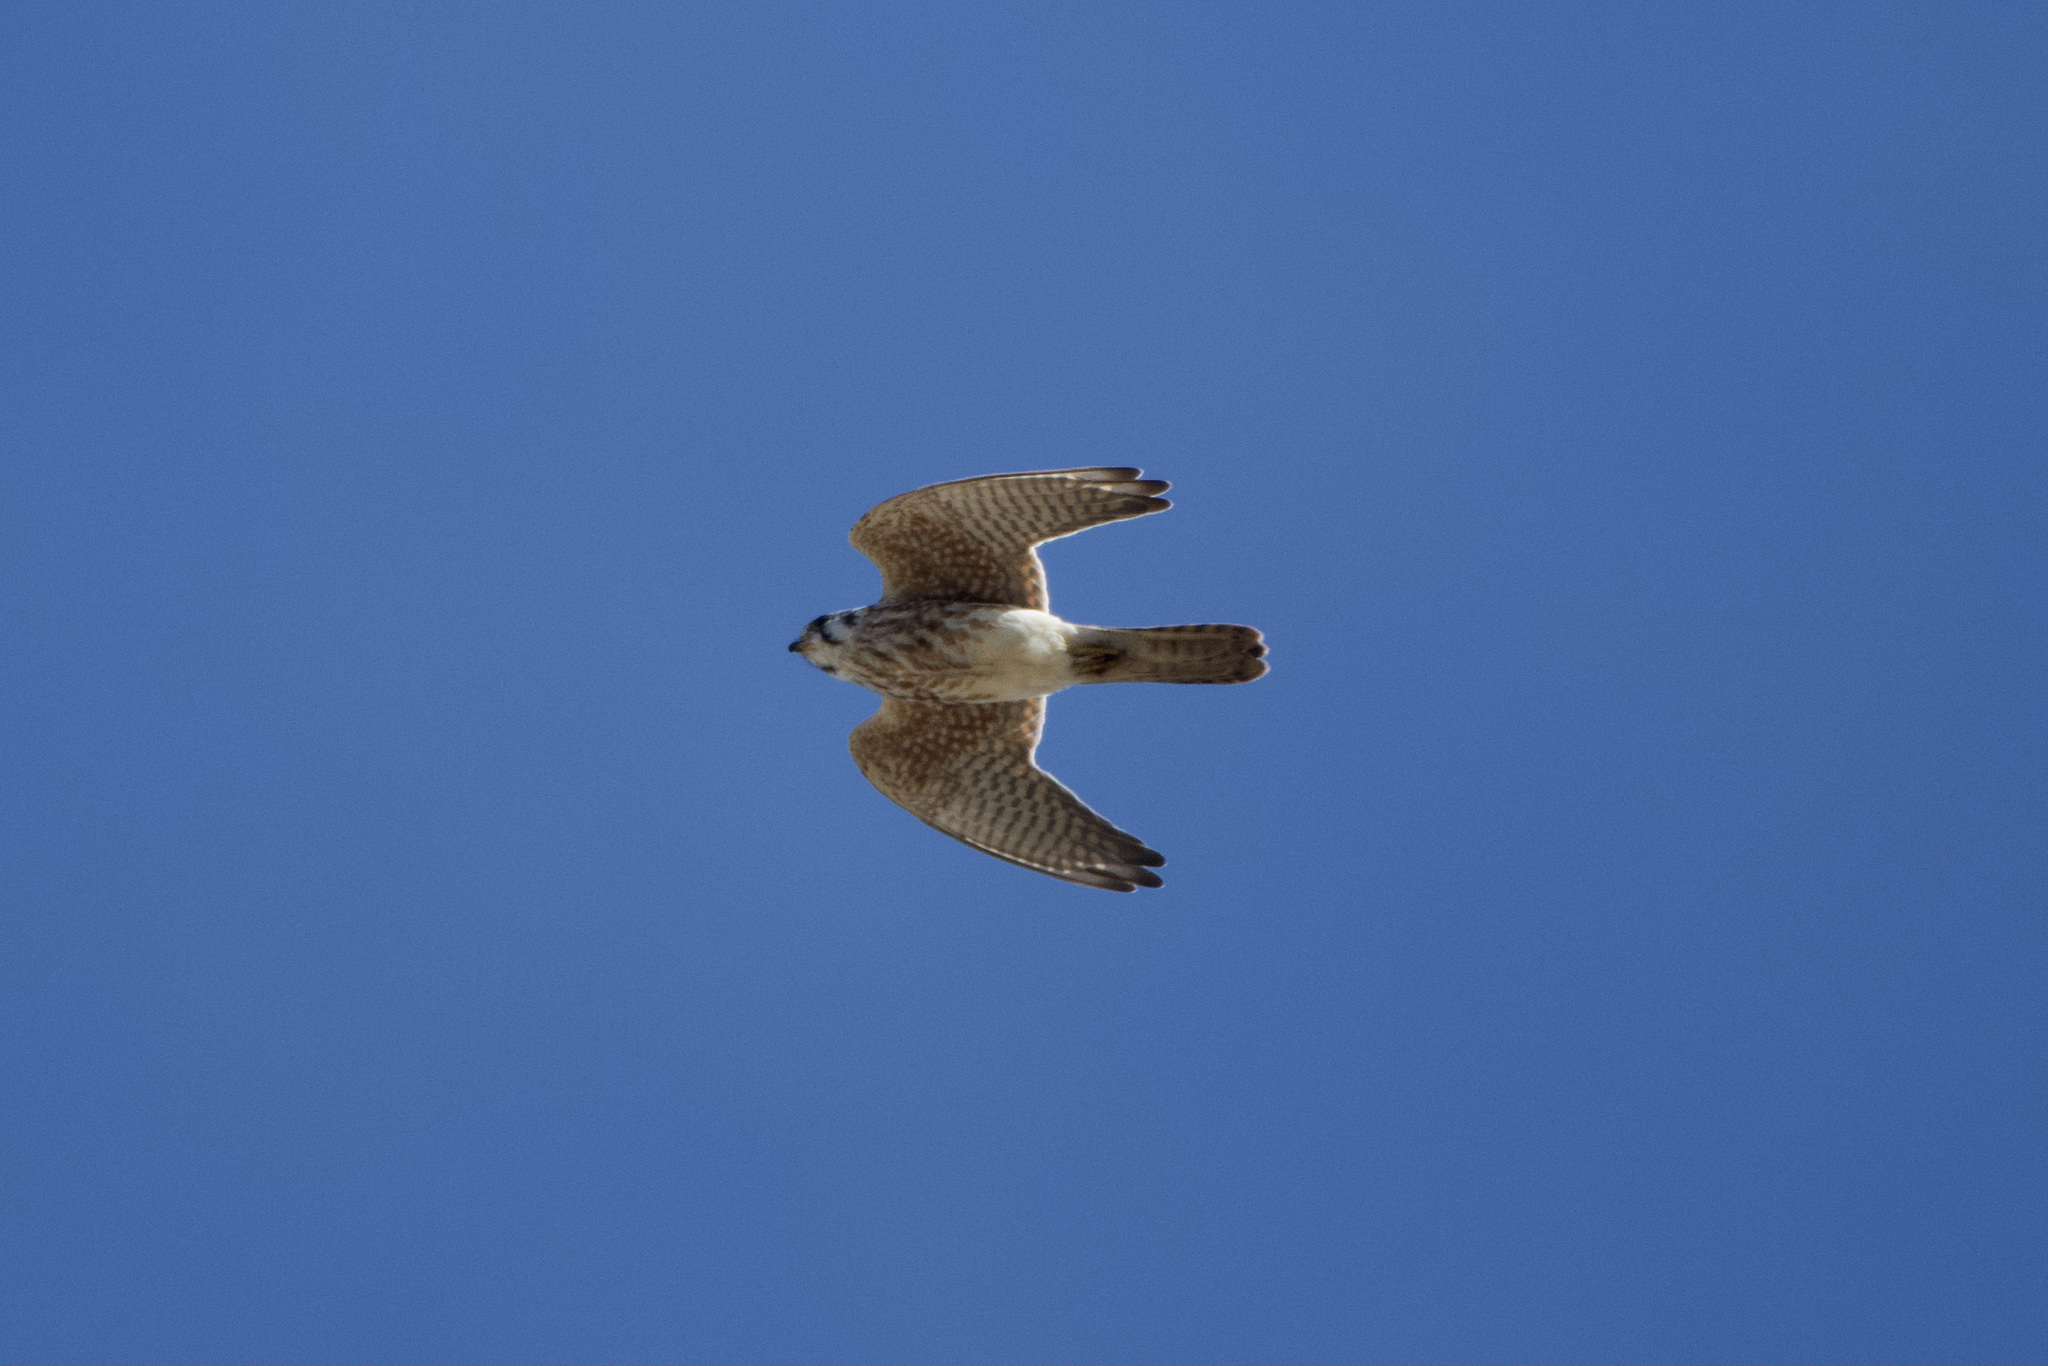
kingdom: Animalia
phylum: Chordata
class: Aves
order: Falconiformes
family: Falconidae
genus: Falco
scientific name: Falco sparverius
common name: American kestrel
